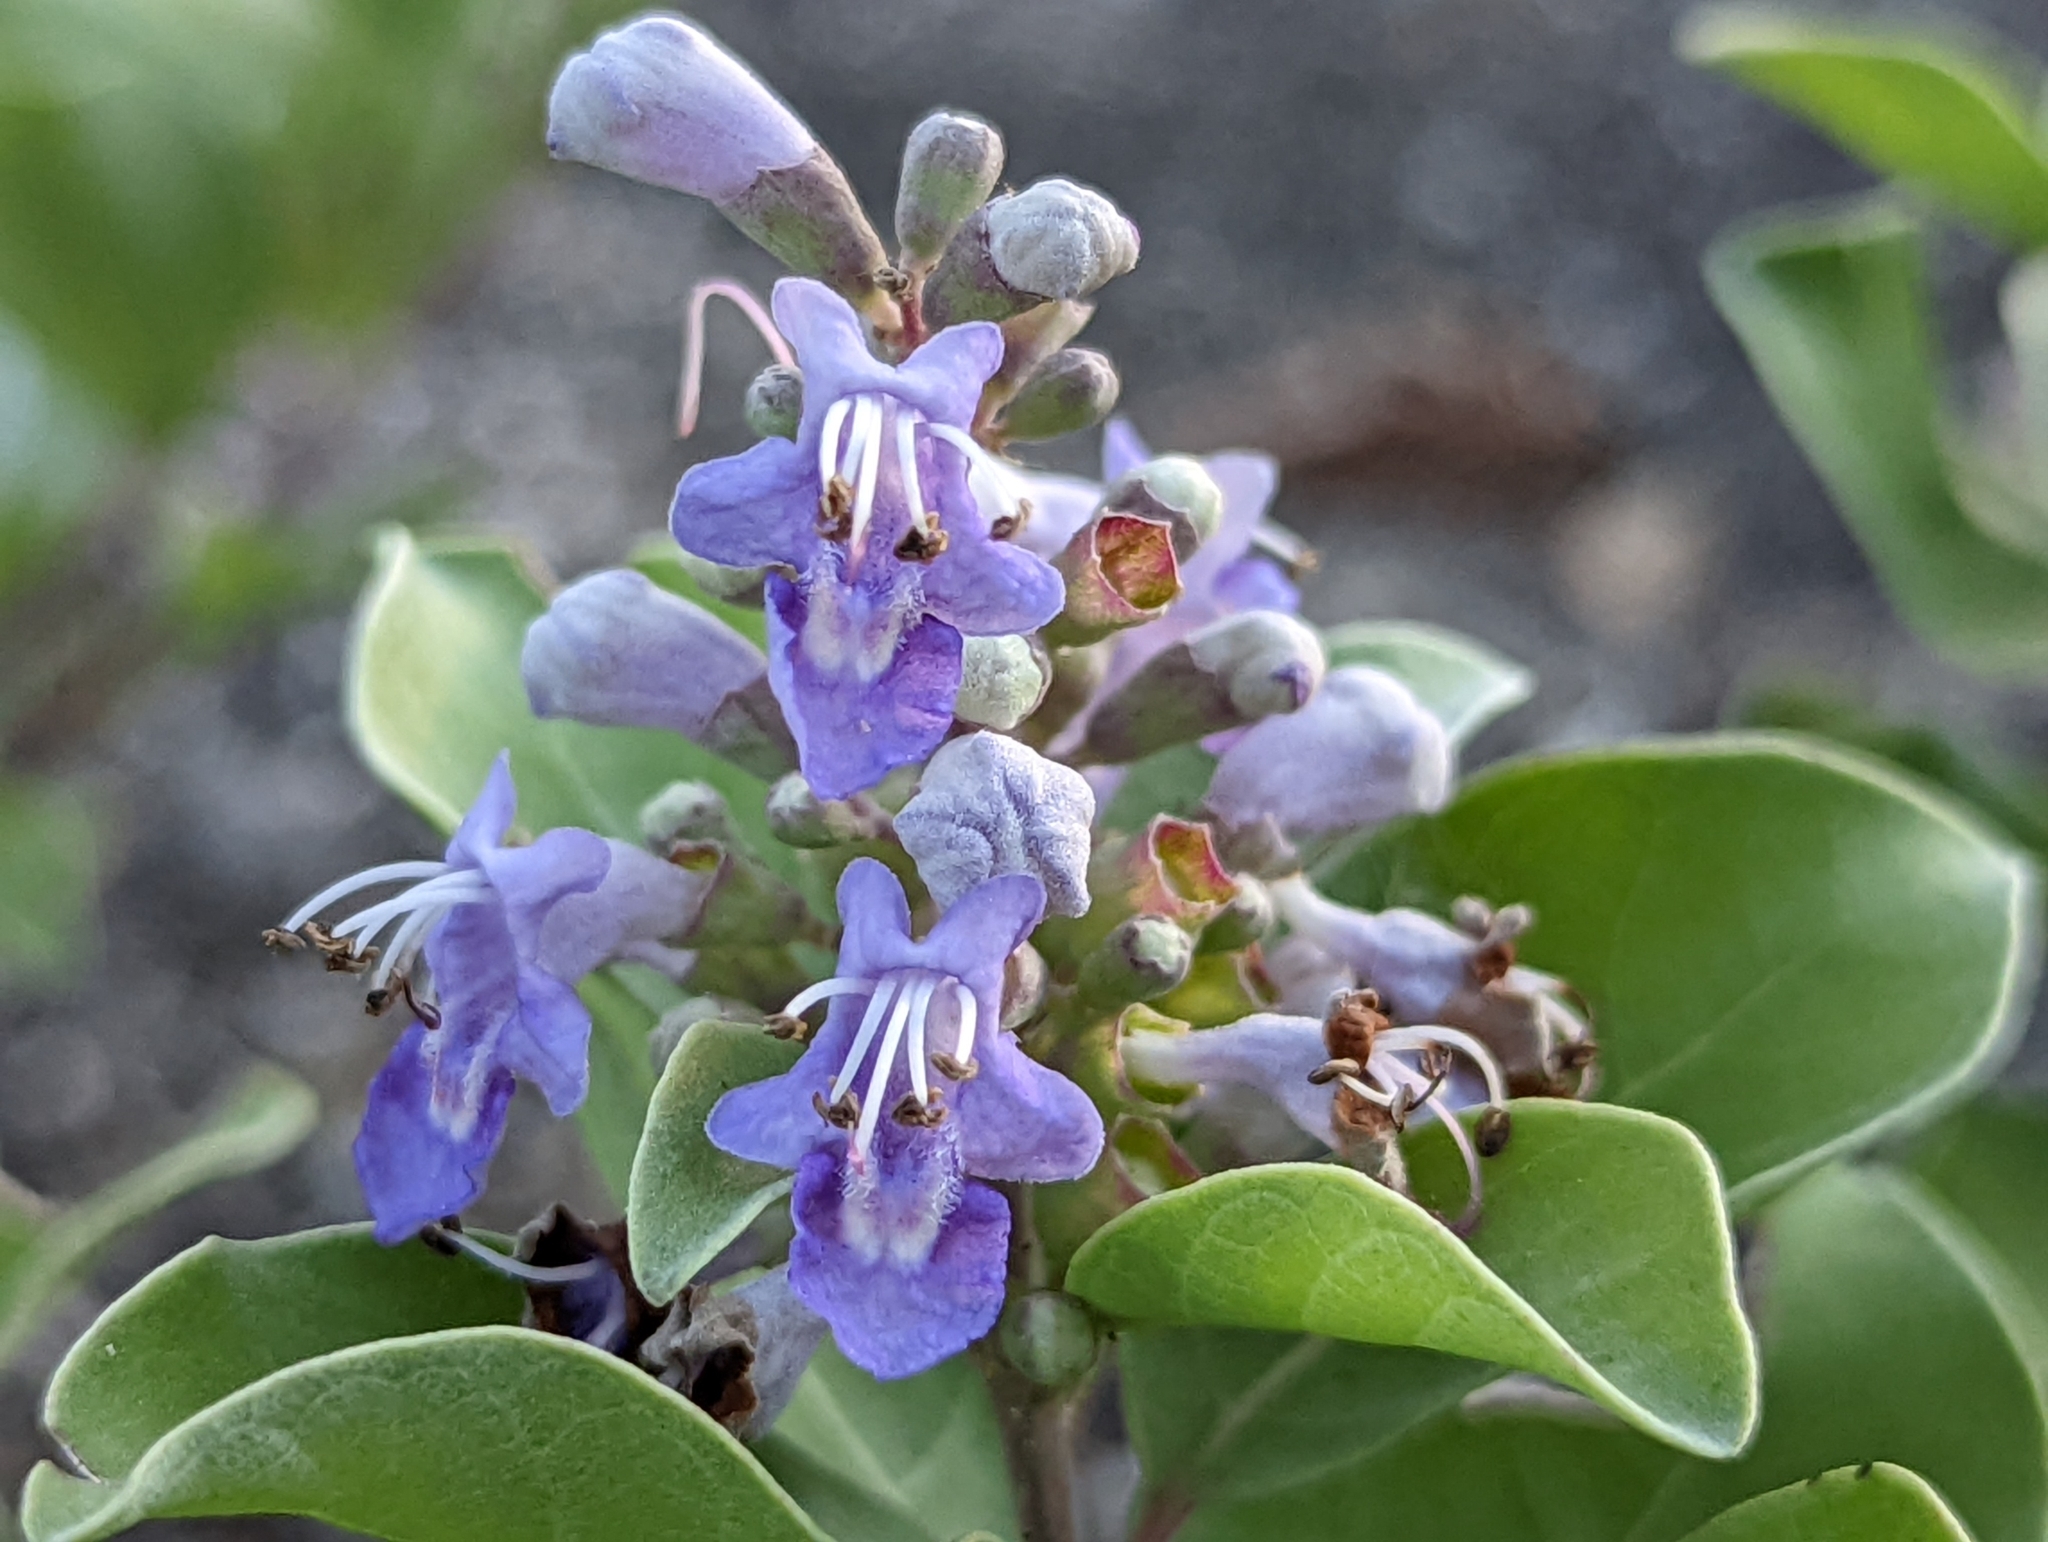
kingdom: Plantae
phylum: Tracheophyta
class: Magnoliopsida
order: Lamiales
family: Lamiaceae
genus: Vitex
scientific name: Vitex rotundifolia
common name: Beach vitex
